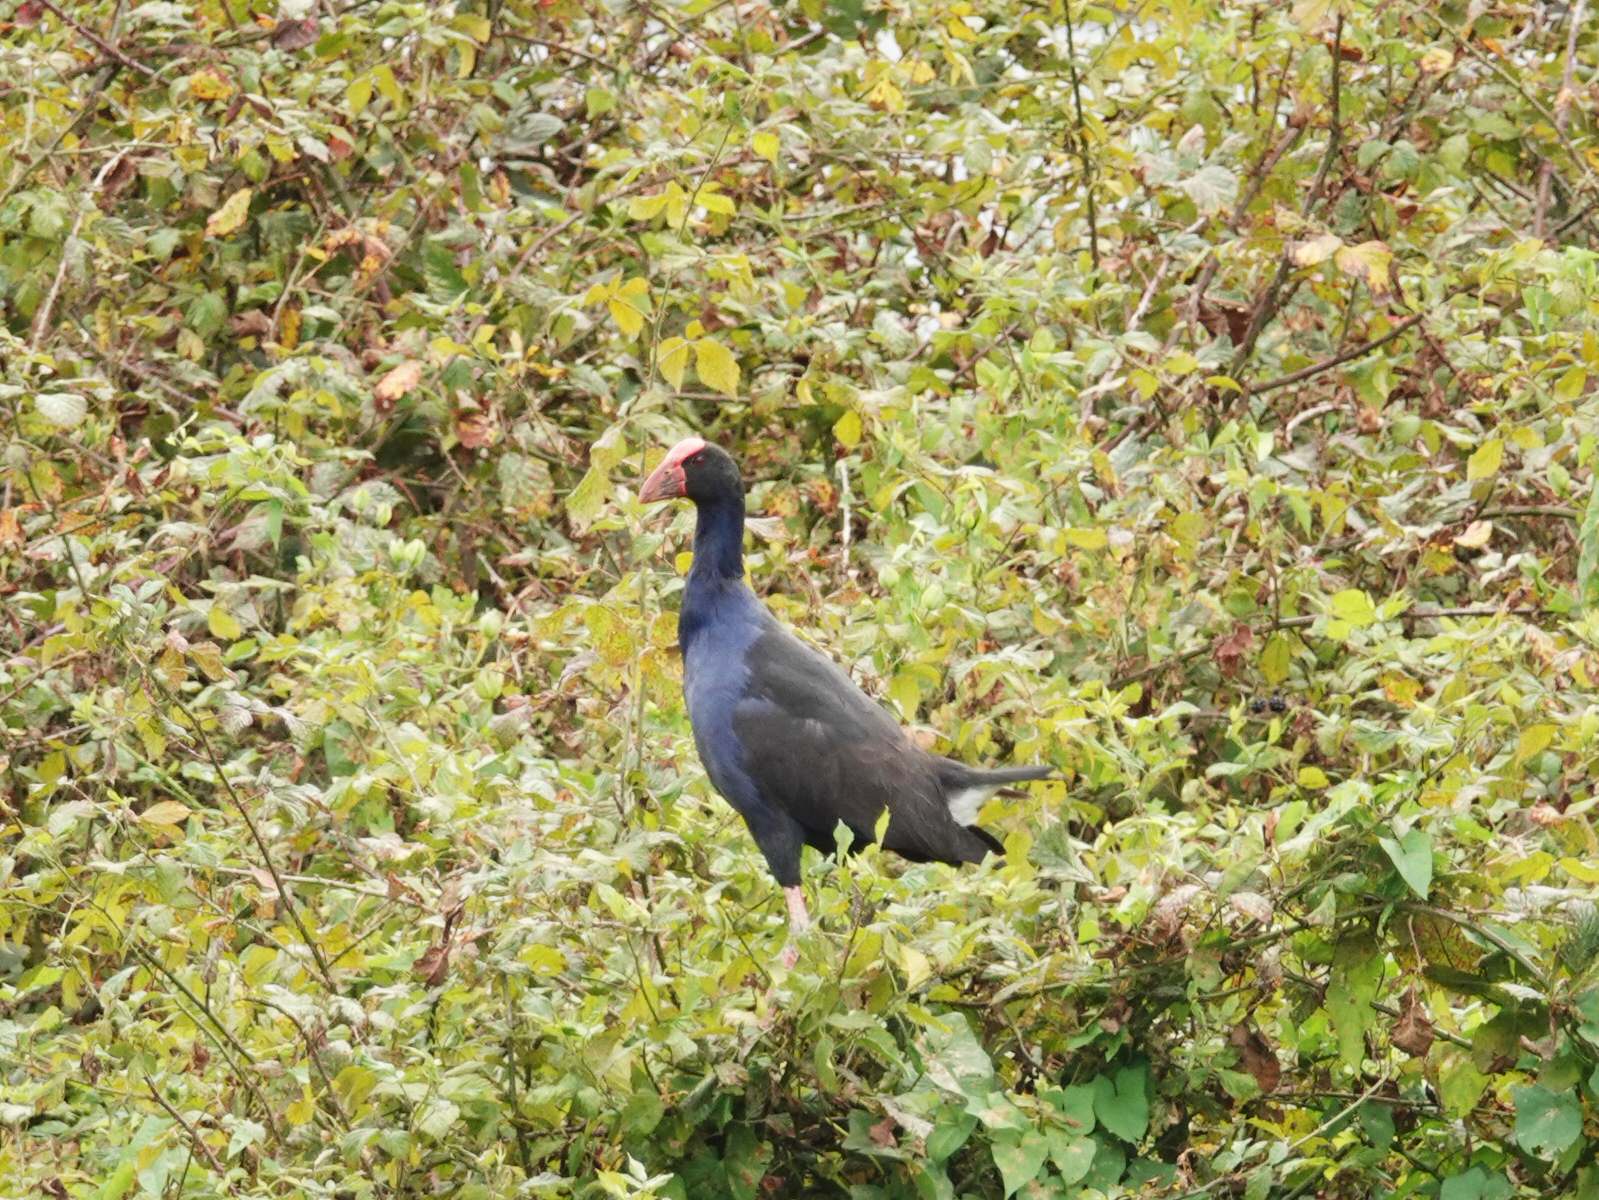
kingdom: Animalia
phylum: Chordata
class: Aves
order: Gruiformes
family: Rallidae
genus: Porphyrio
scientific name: Porphyrio melanotus
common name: Australasian swamphen
